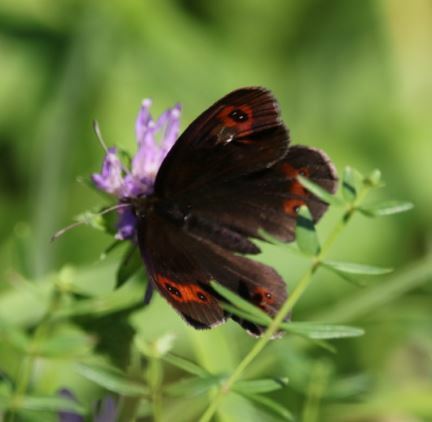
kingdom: Animalia
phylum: Arthropoda
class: Insecta
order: Lepidoptera
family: Nymphalidae
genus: Erebia
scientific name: Erebia aethiops
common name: Scotch argus
